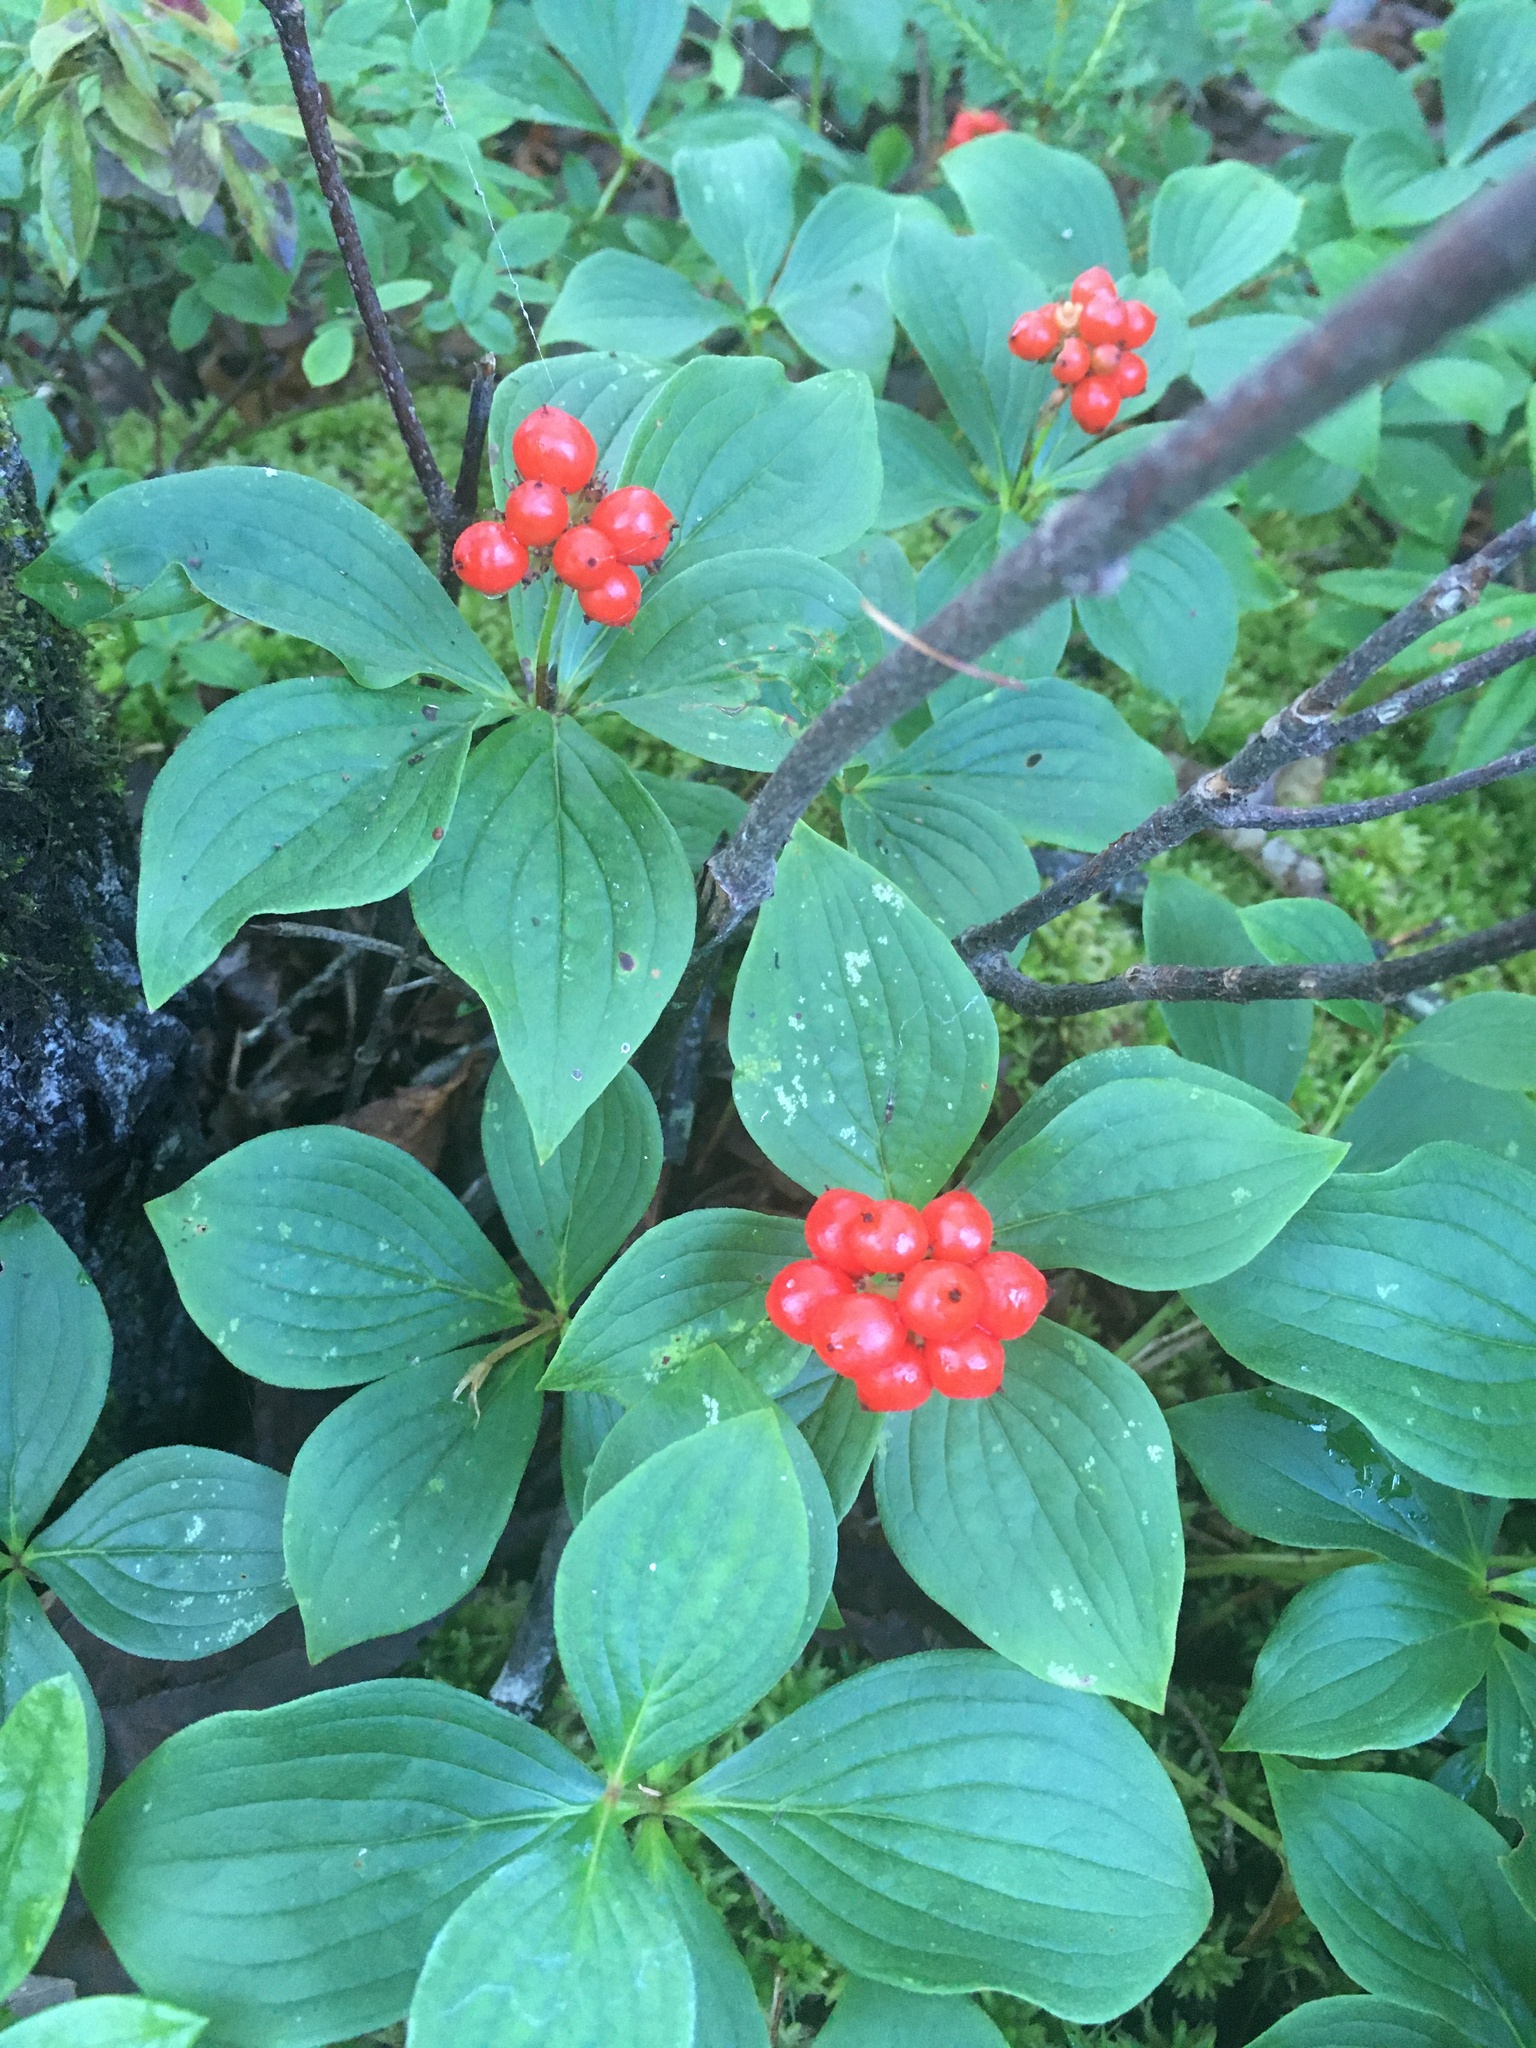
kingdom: Plantae
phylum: Tracheophyta
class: Magnoliopsida
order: Cornales
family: Cornaceae
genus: Cornus
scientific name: Cornus canadensis
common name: Creeping dogwood
